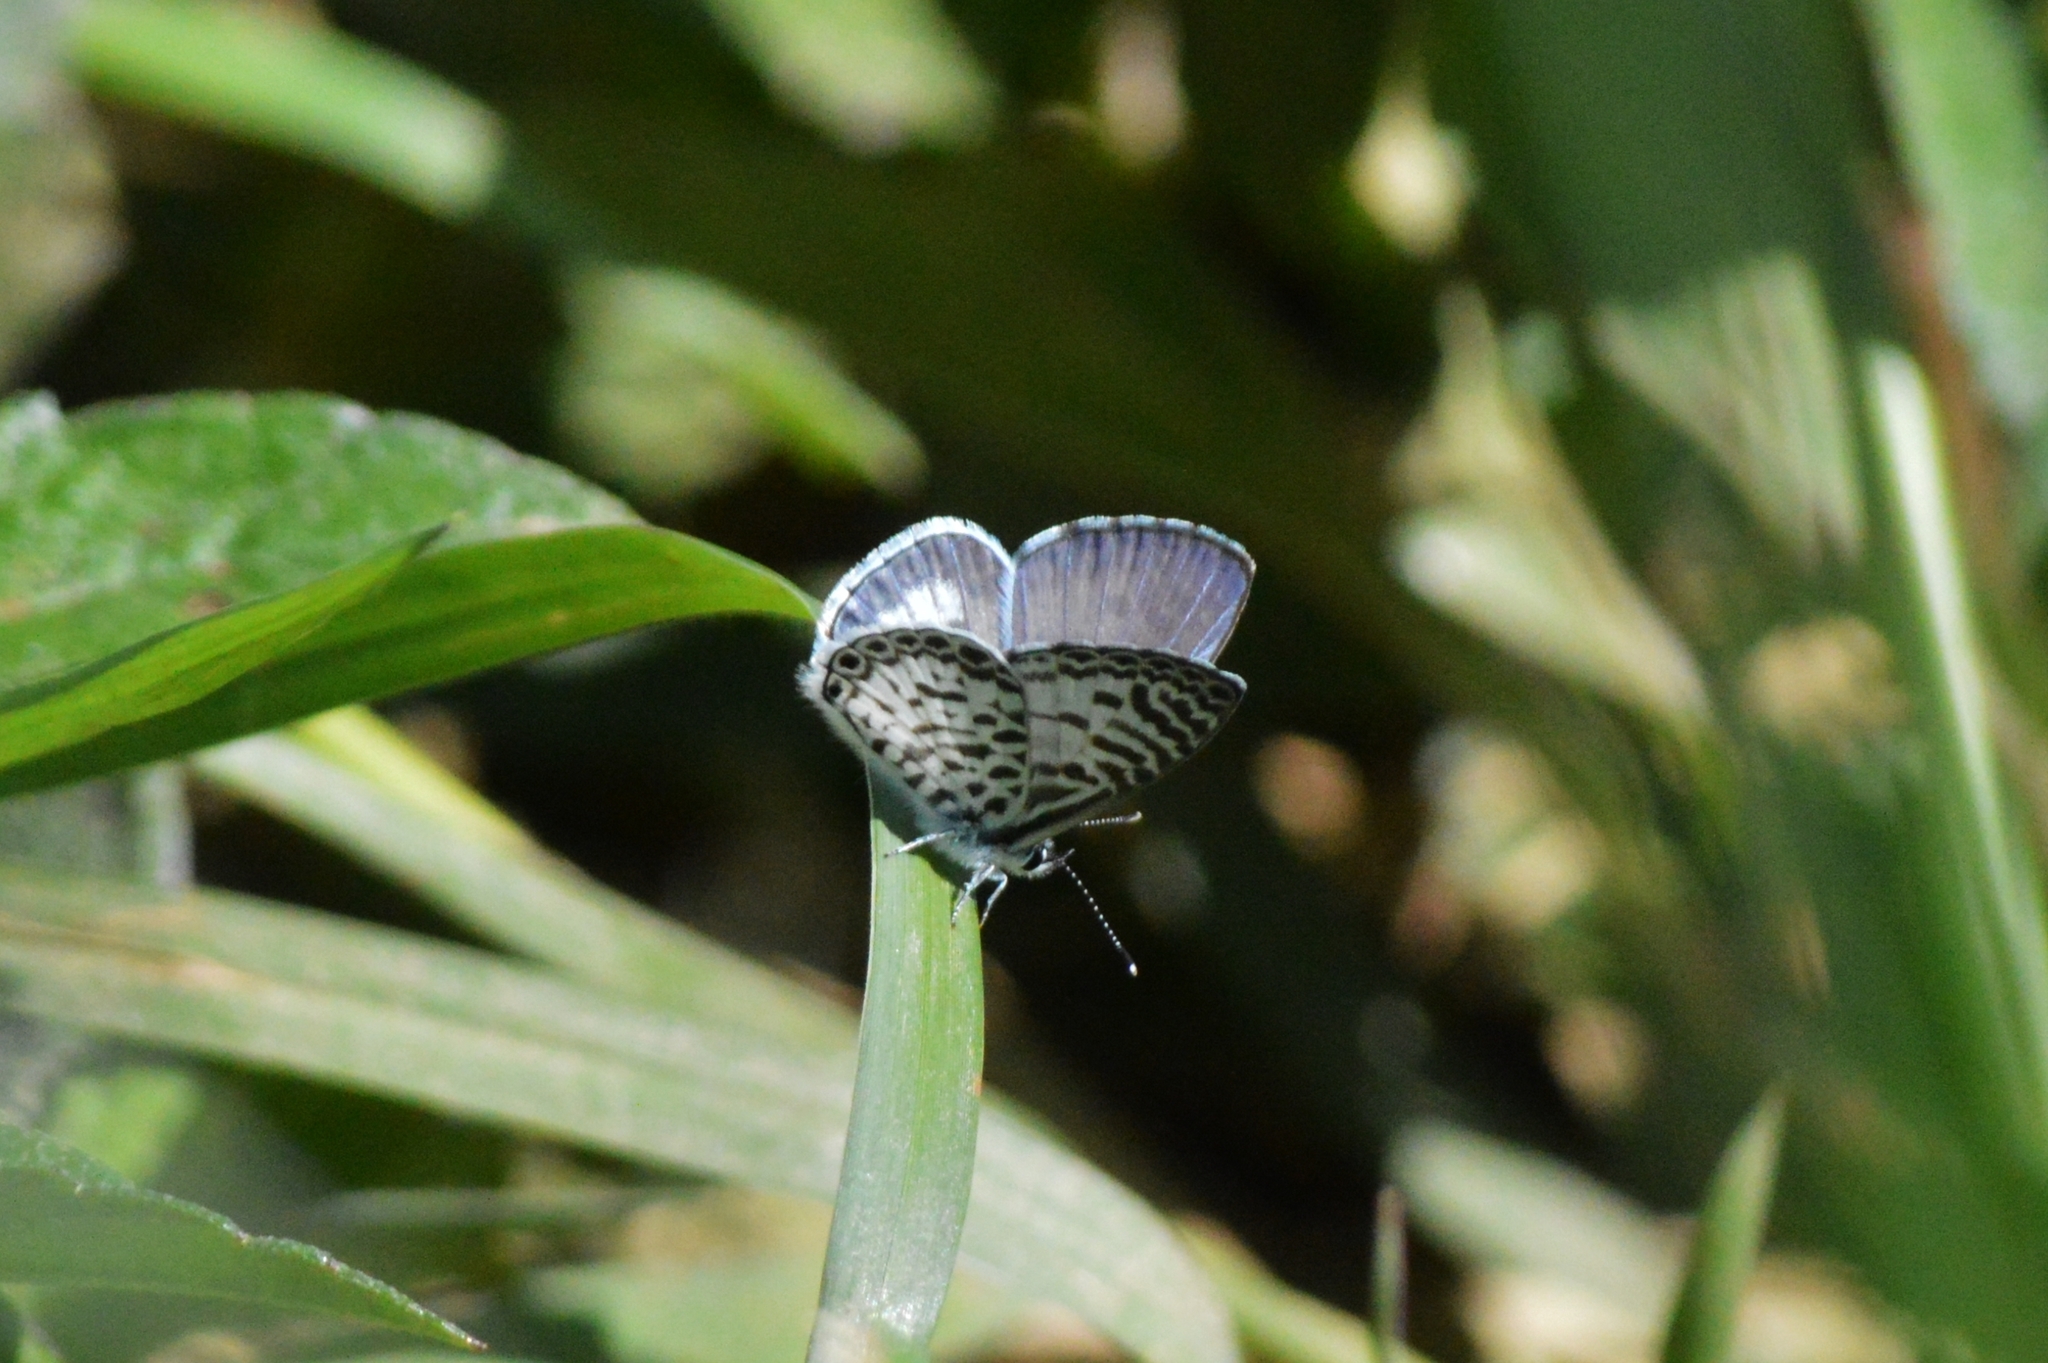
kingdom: Animalia
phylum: Arthropoda
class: Insecta
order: Lepidoptera
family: Lycaenidae
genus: Leptotes
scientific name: Leptotes cassius
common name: Cassius blue
